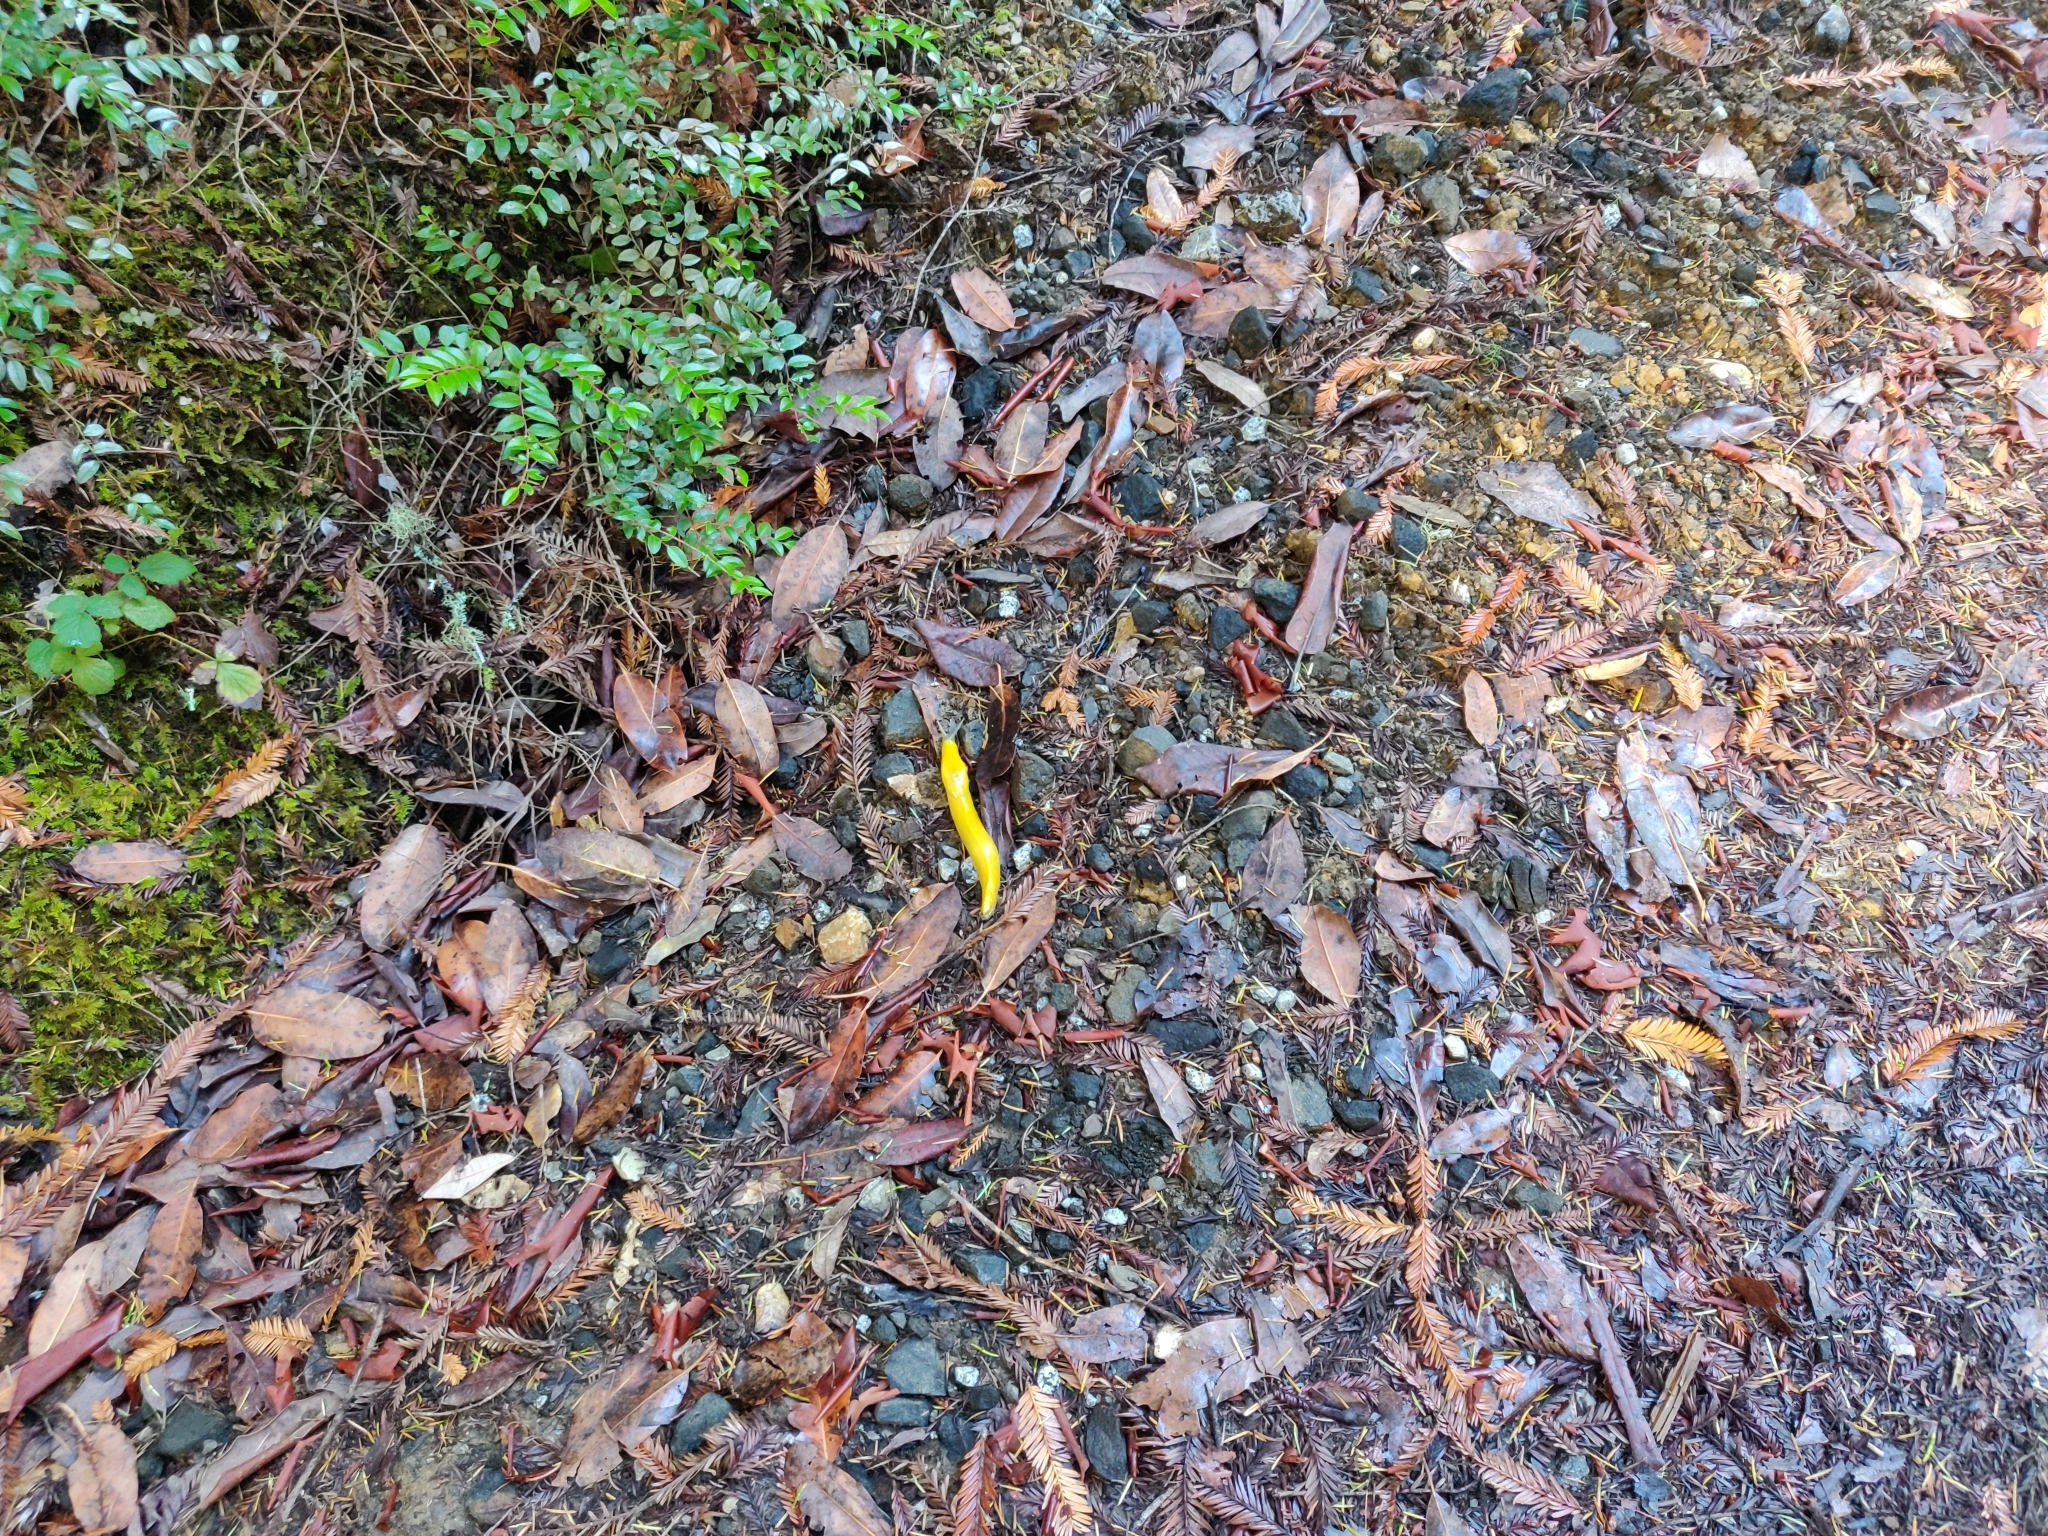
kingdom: Animalia
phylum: Mollusca
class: Gastropoda
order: Stylommatophora
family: Ariolimacidae
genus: Ariolimax
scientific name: Ariolimax californicus
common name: California banana slug
